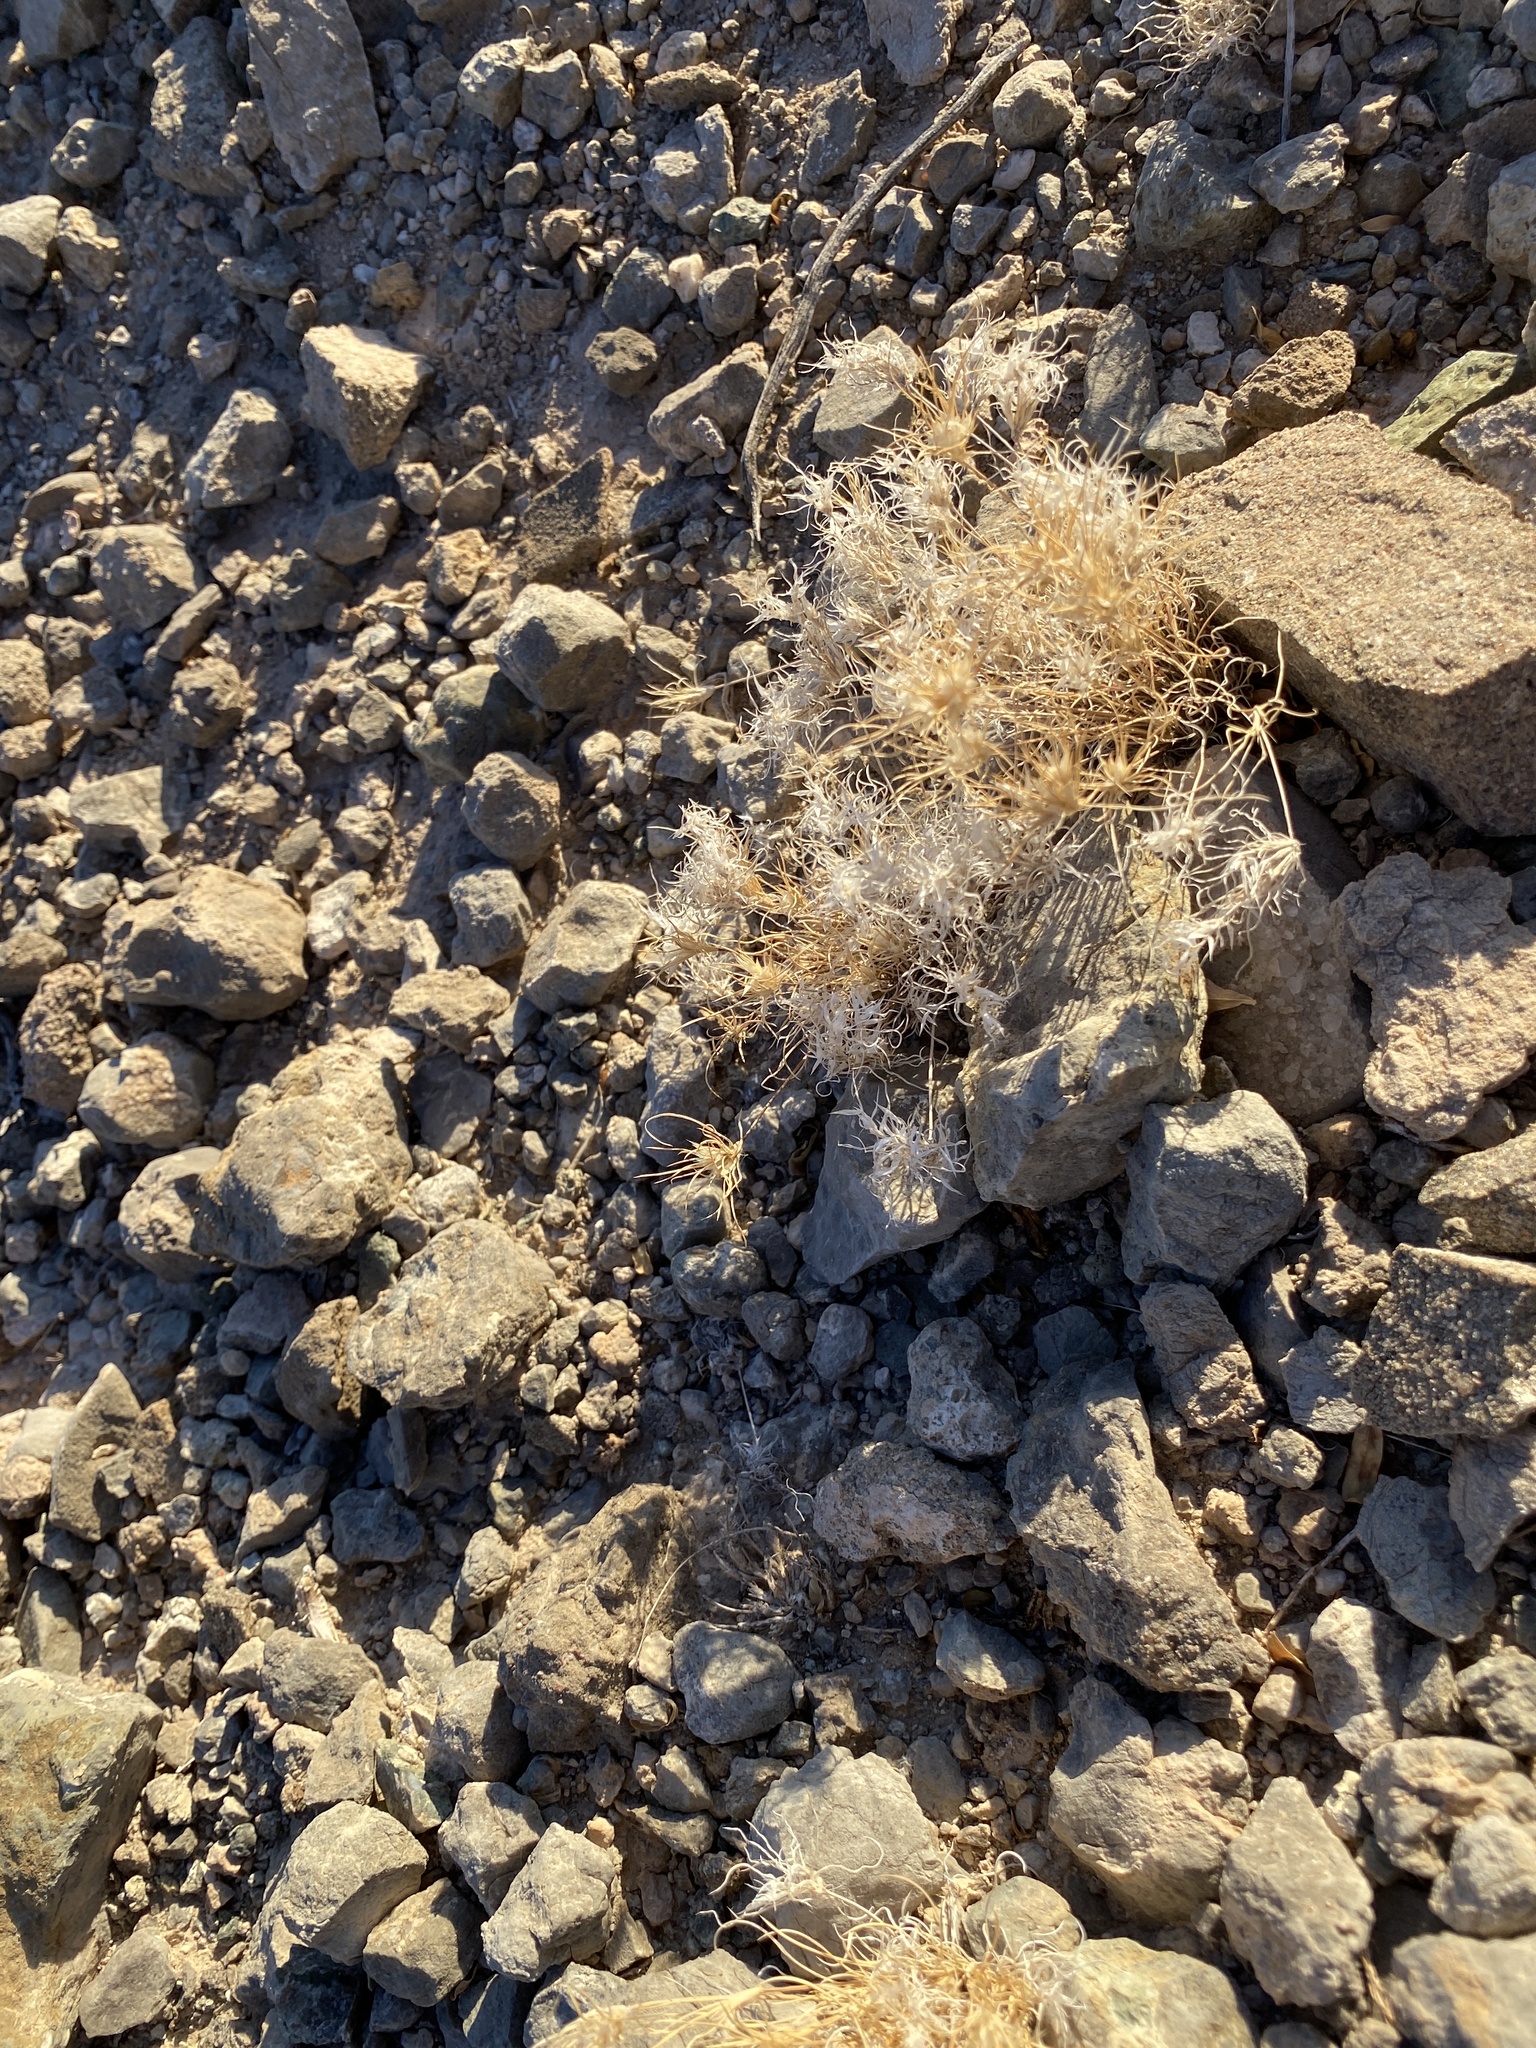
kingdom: Plantae
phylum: Tracheophyta
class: Liliopsida
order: Poales
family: Poaceae
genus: Dasyochloa
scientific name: Dasyochloa pulchella
